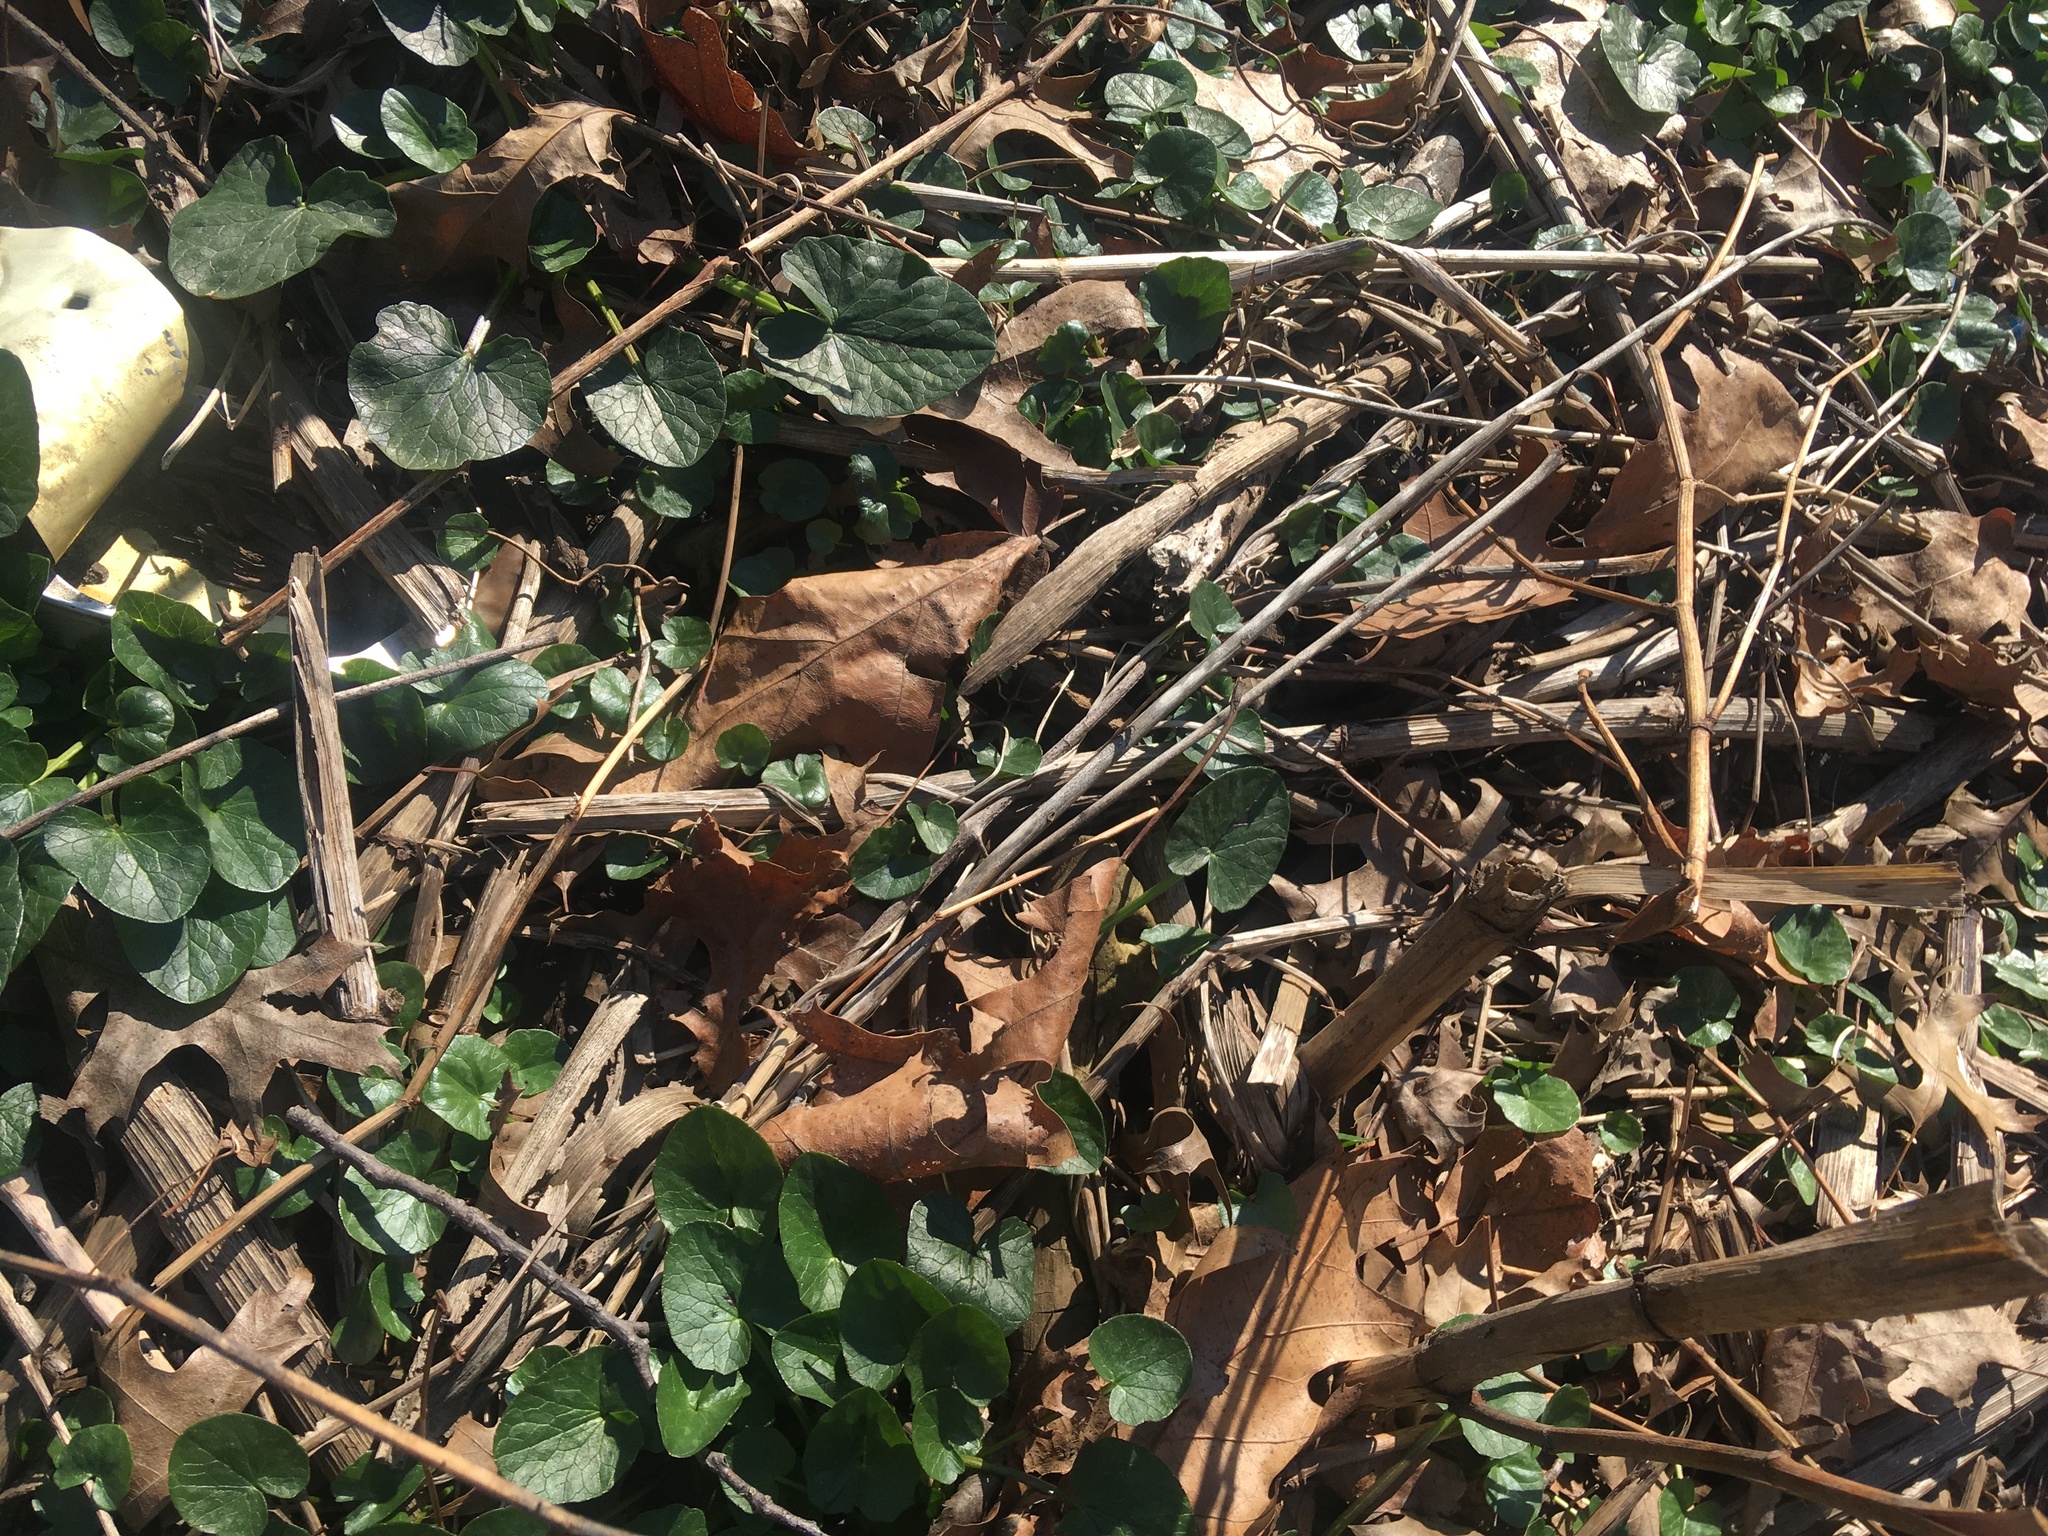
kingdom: Plantae
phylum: Tracheophyta
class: Magnoliopsida
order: Ranunculales
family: Ranunculaceae
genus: Ficaria
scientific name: Ficaria verna
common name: Lesser celandine
